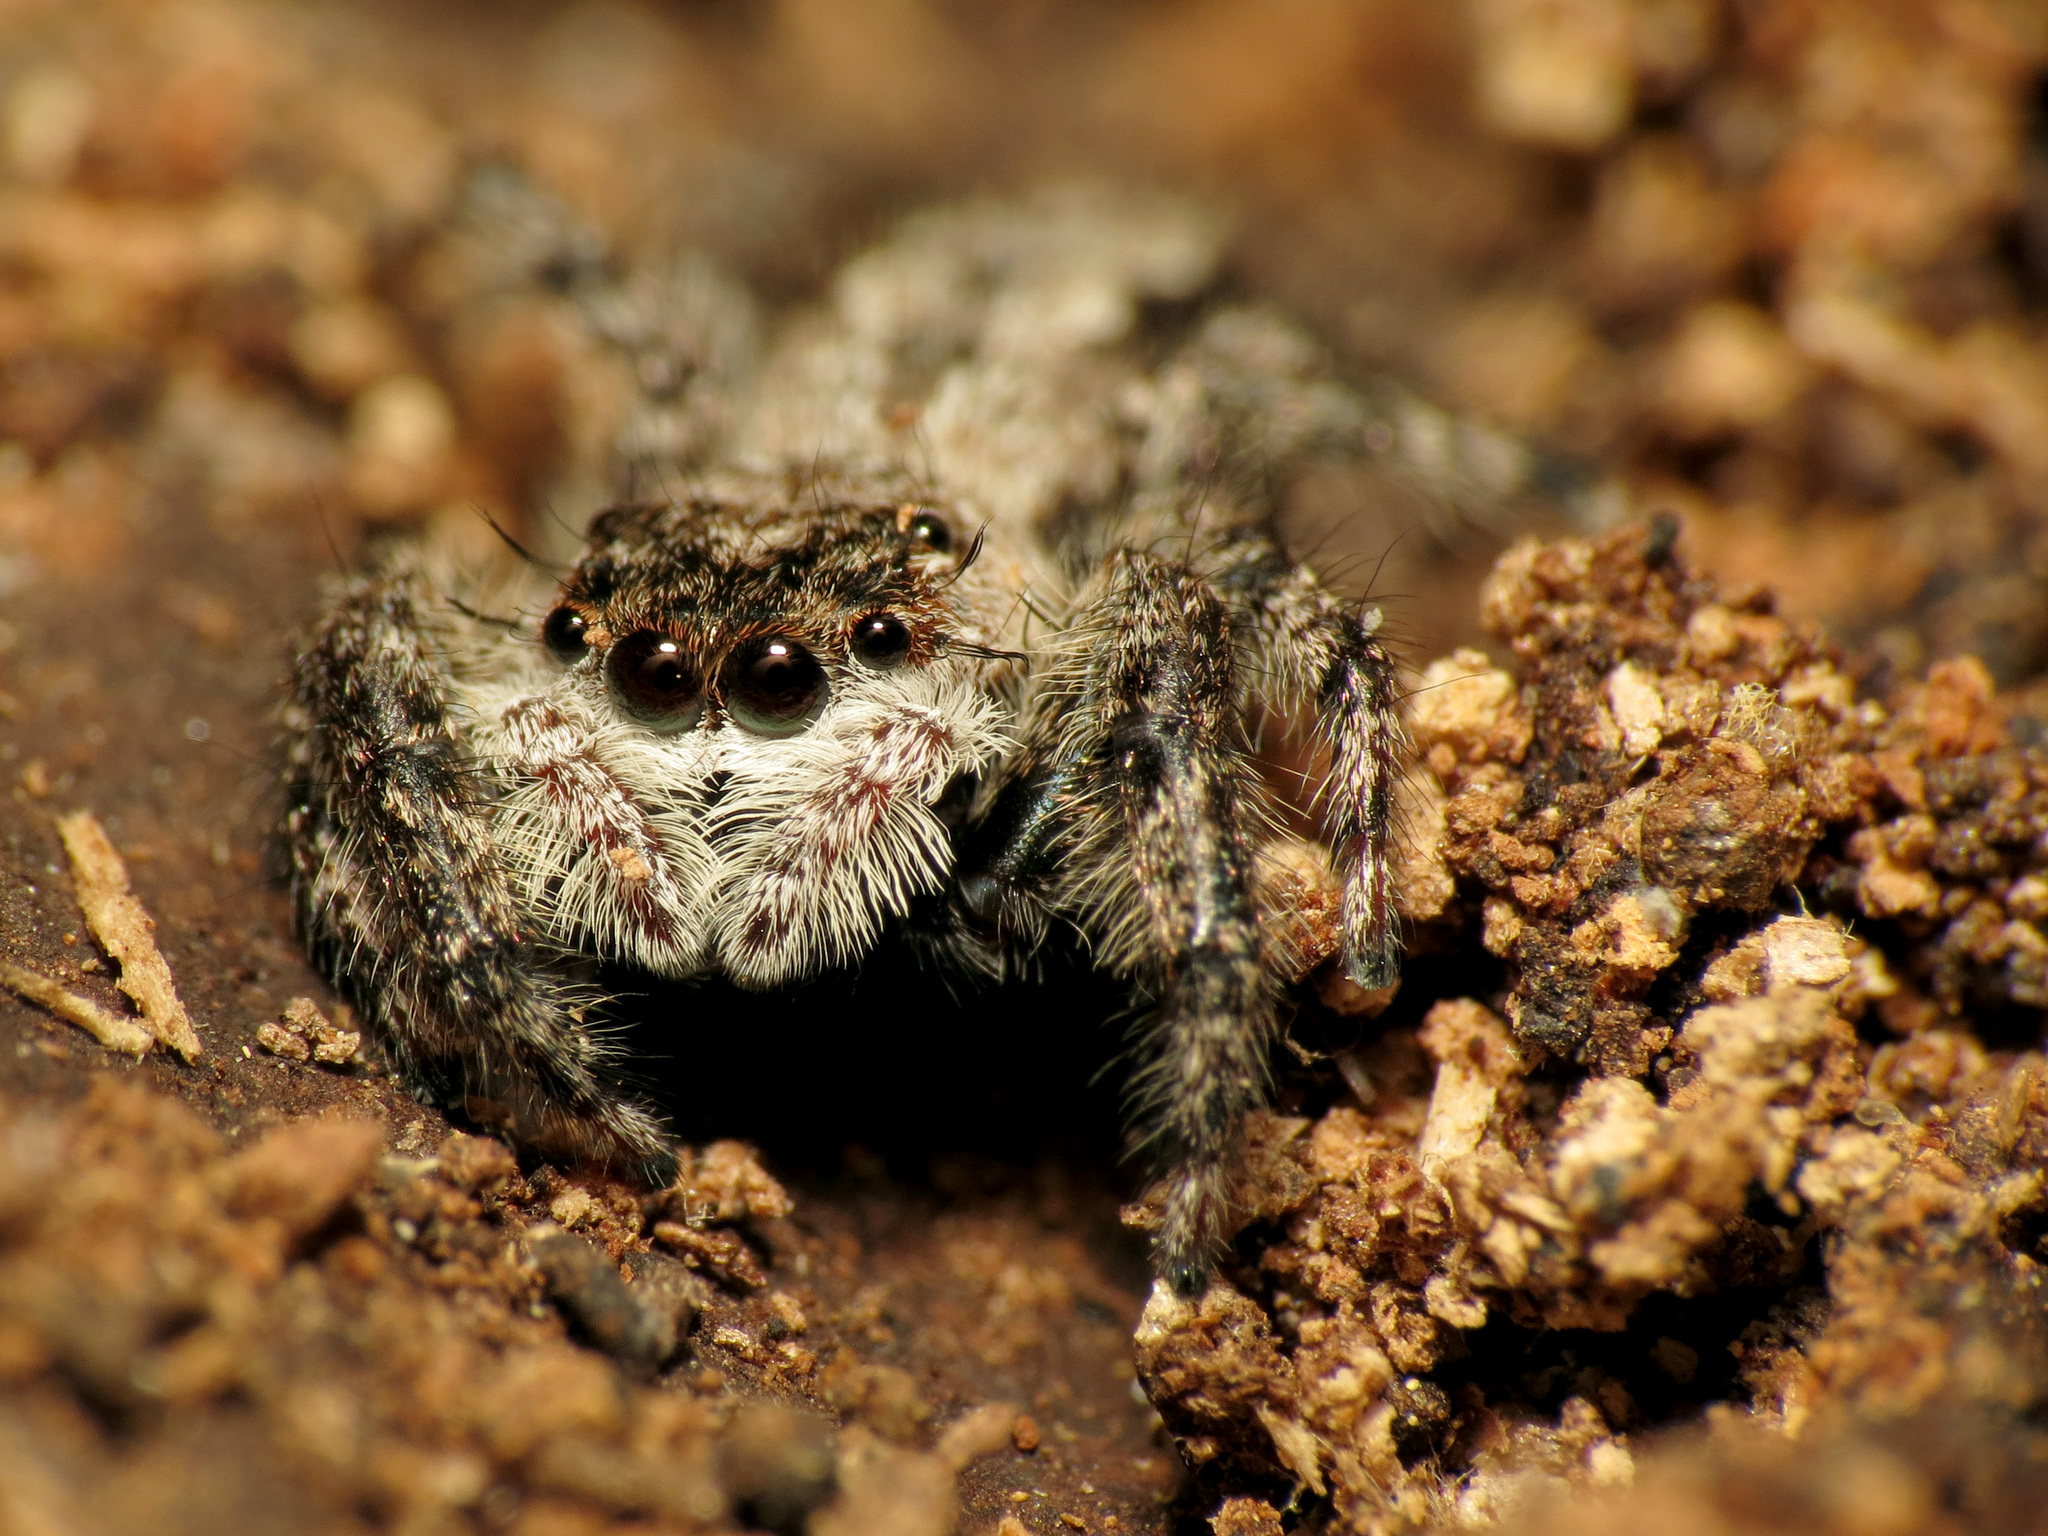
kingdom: Animalia
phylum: Arthropoda
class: Arachnida
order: Araneae
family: Salticidae
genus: Platycryptus
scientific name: Platycryptus undatus
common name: Tan jumping spider
